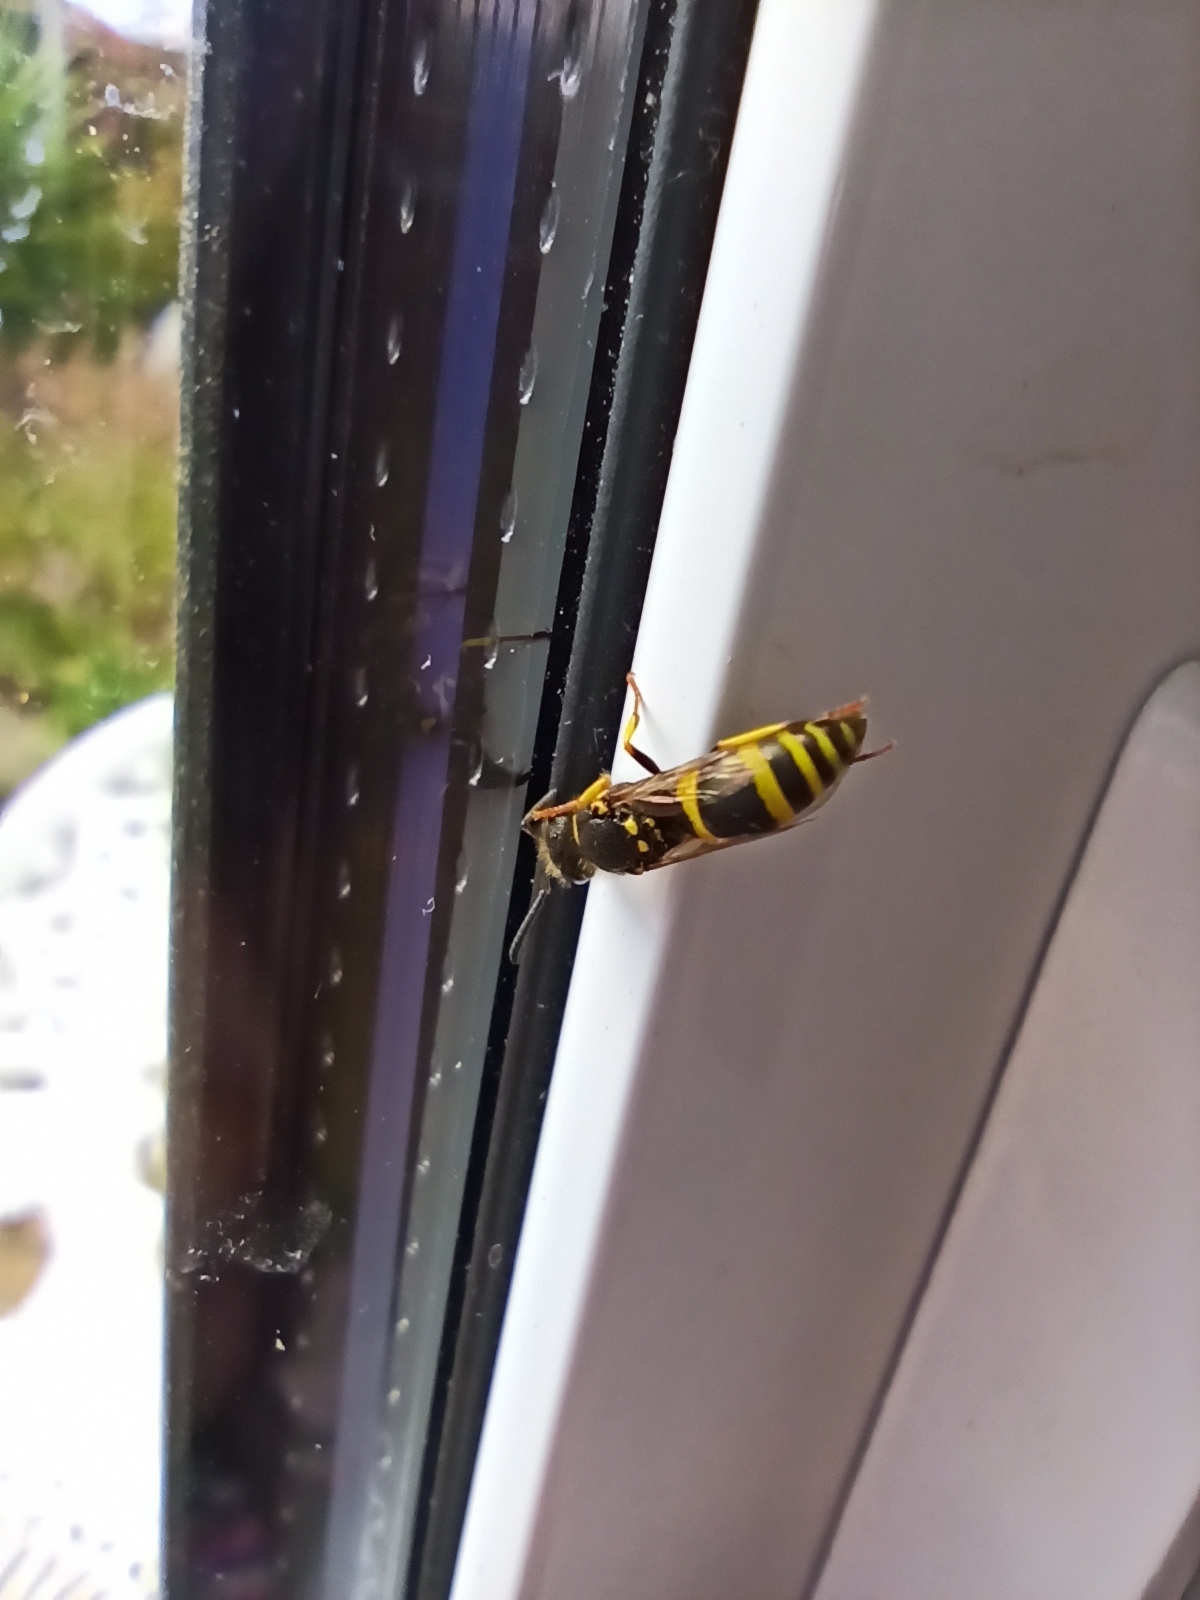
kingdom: Animalia
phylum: Arthropoda
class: Insecta
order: Hymenoptera
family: Vespidae
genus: Ancistrocerus
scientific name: Ancistrocerus gazella
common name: European tube wasp
